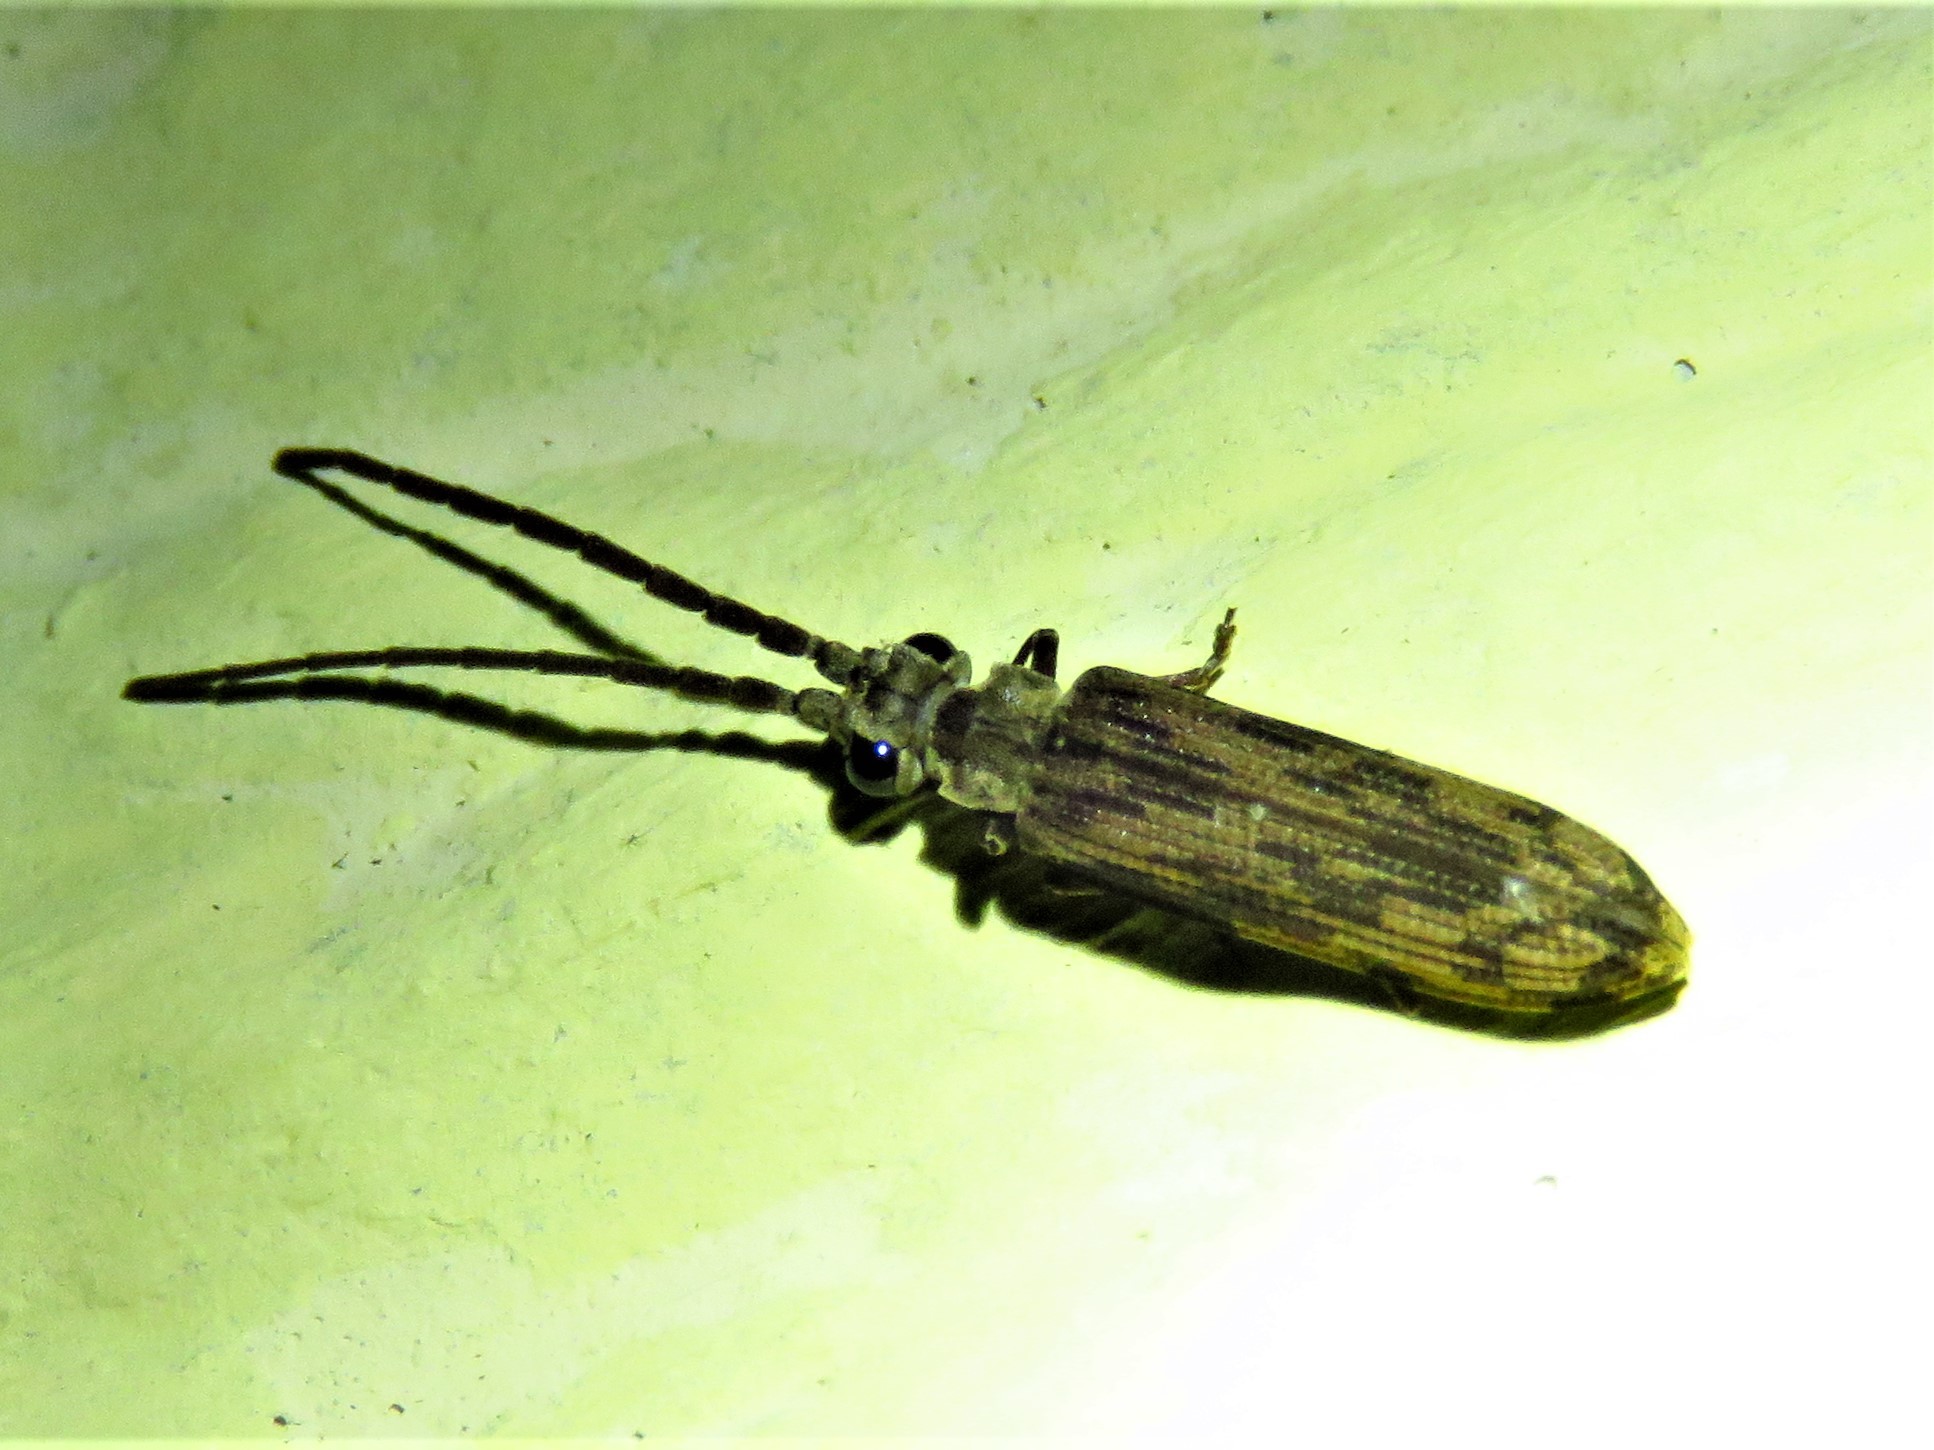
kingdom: Animalia
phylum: Arthropoda
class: Insecta
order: Coleoptera
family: Cupedidae
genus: Tenomerga
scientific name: Tenomerga cinerea
